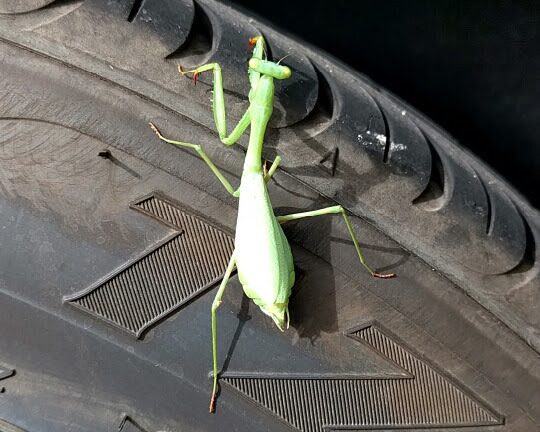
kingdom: Animalia
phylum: Arthropoda
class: Insecta
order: Mantodea
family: Miomantidae
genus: Miomantis
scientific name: Miomantis caffra
